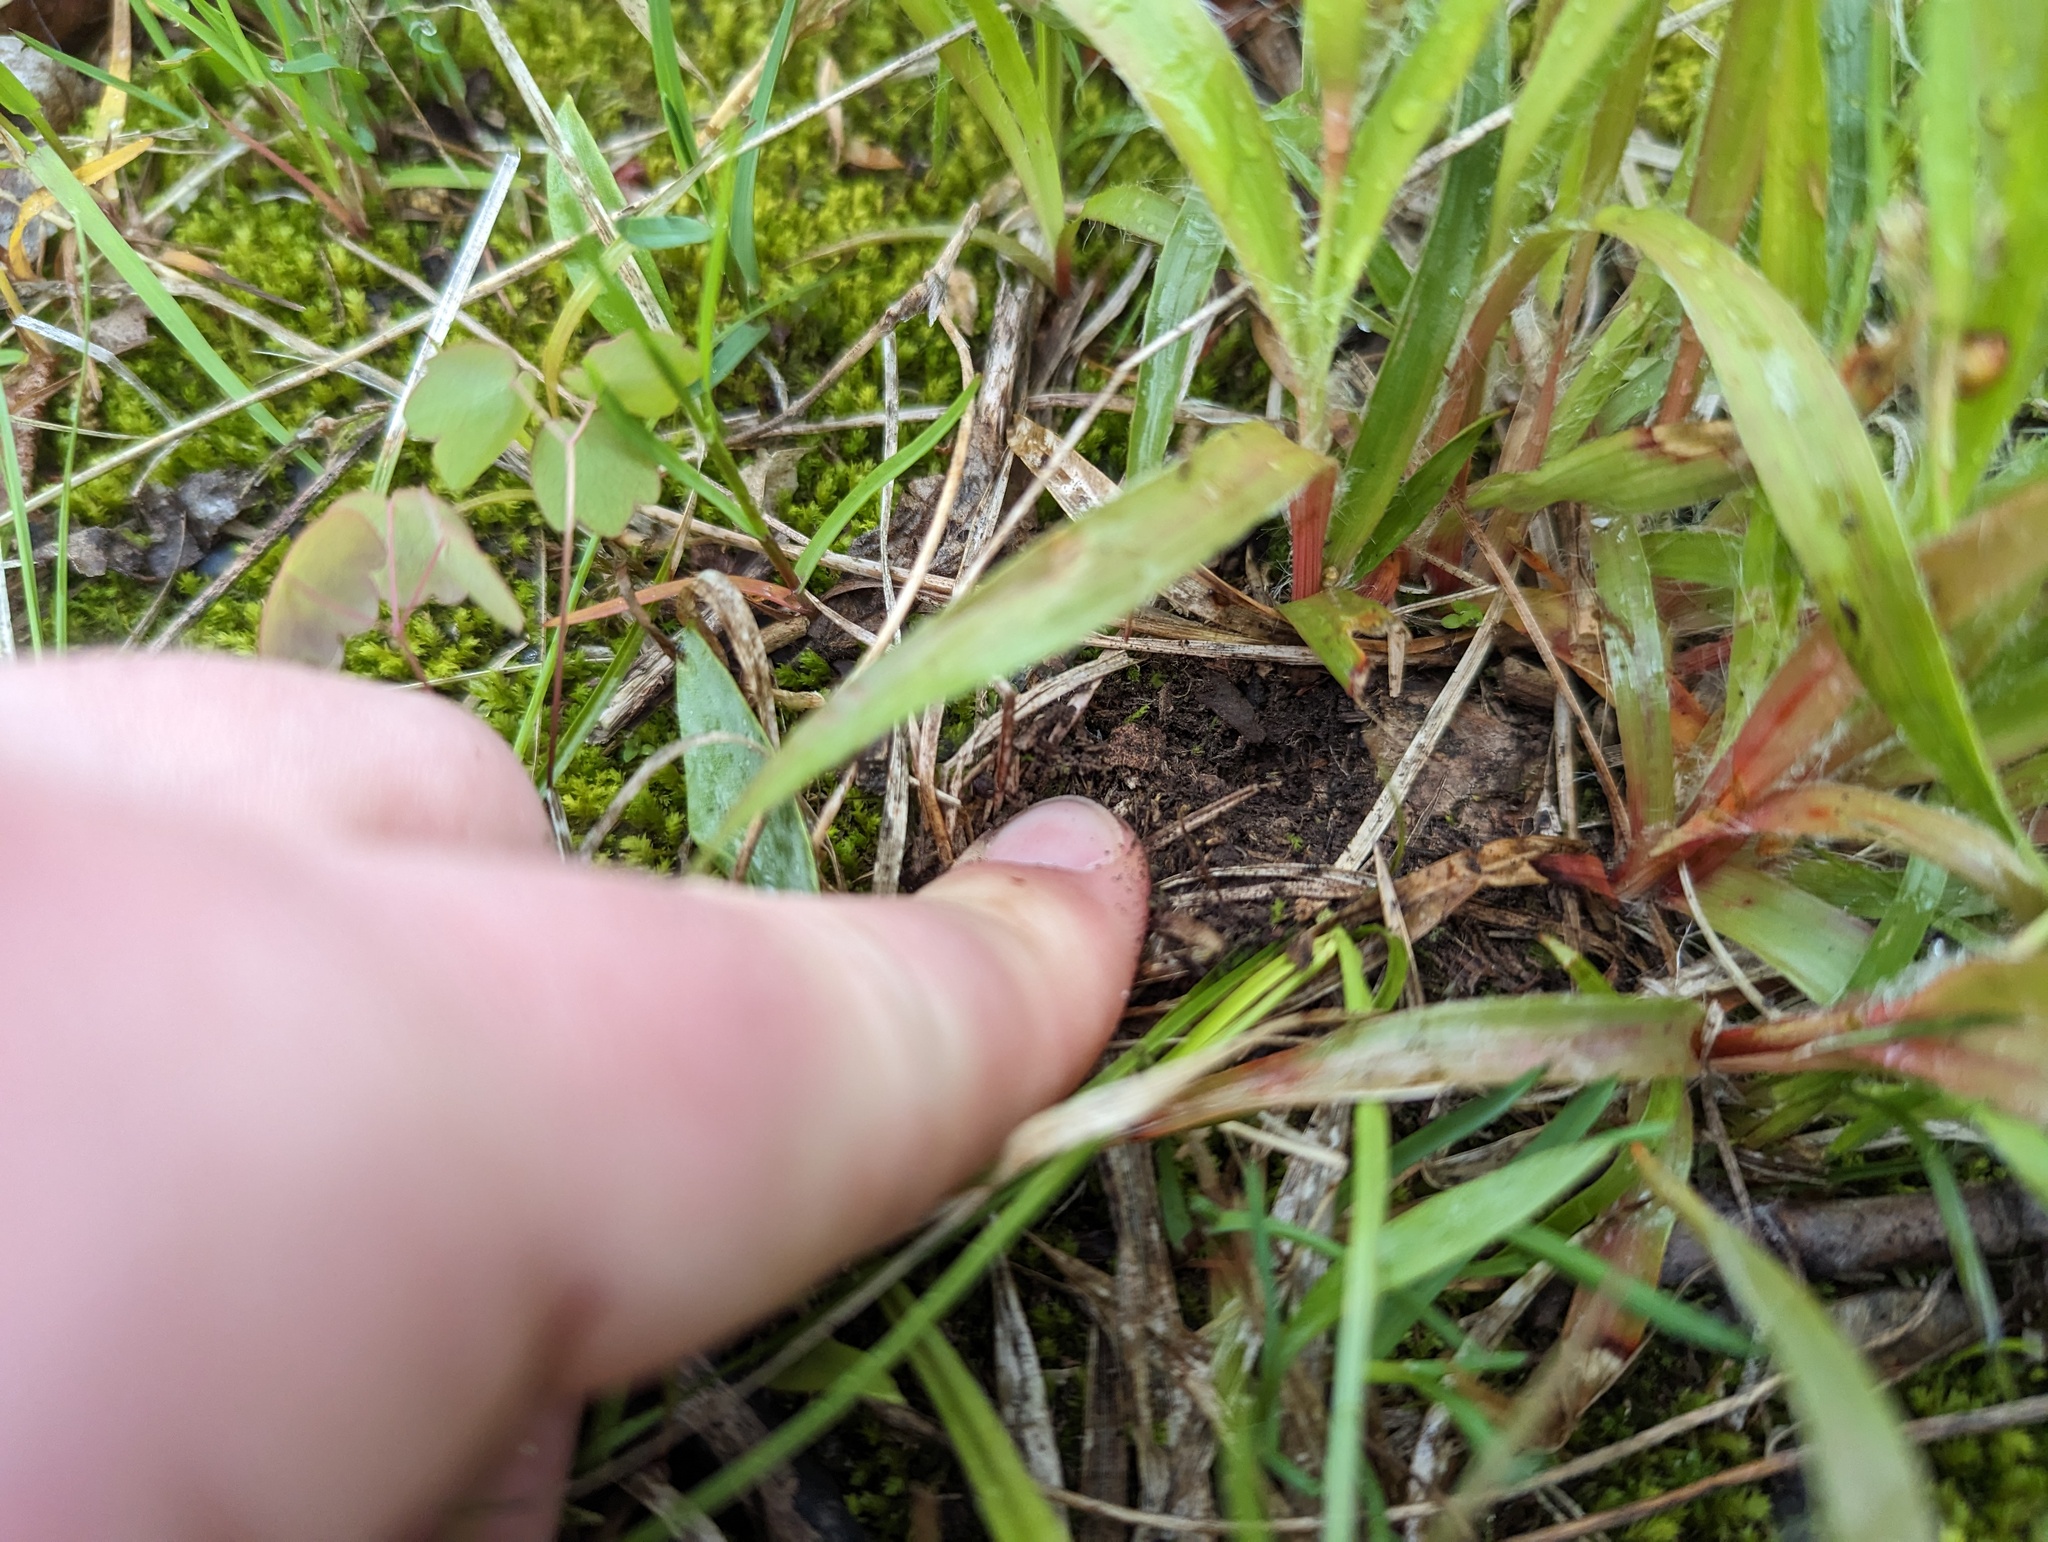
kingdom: Plantae
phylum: Tracheophyta
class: Liliopsida
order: Poales
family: Juncaceae
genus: Luzula
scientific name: Luzula multiflora
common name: Heath wood-rush
